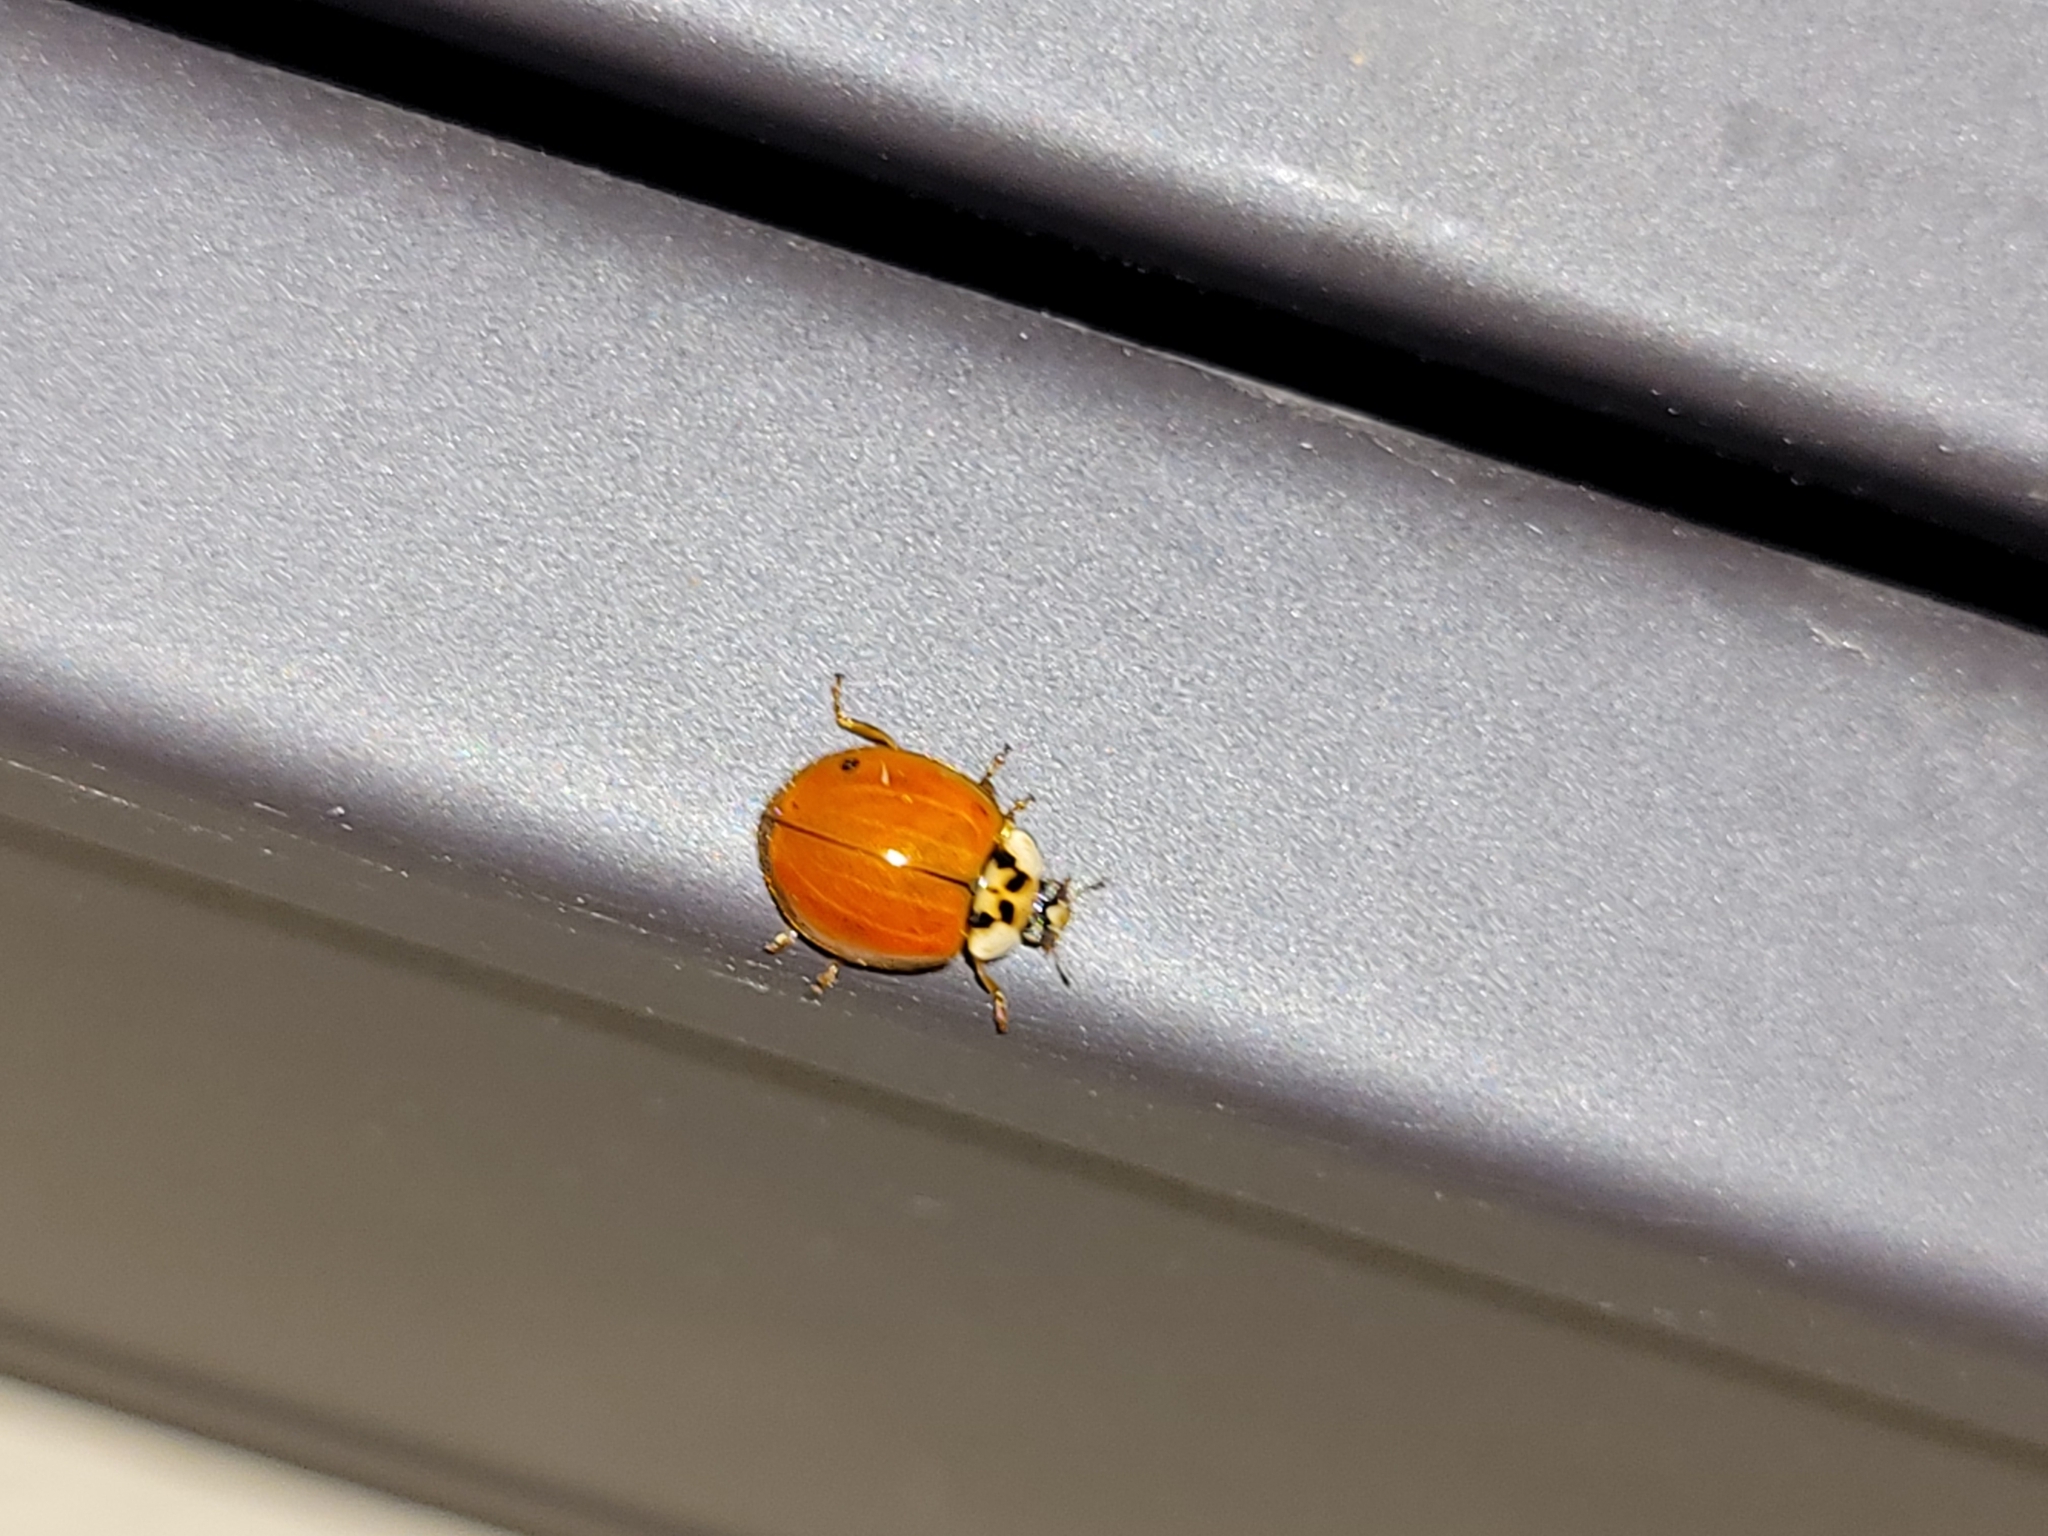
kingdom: Animalia
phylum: Arthropoda
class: Insecta
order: Coleoptera
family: Coccinellidae
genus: Harmonia
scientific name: Harmonia axyridis
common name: Harlequin ladybird
